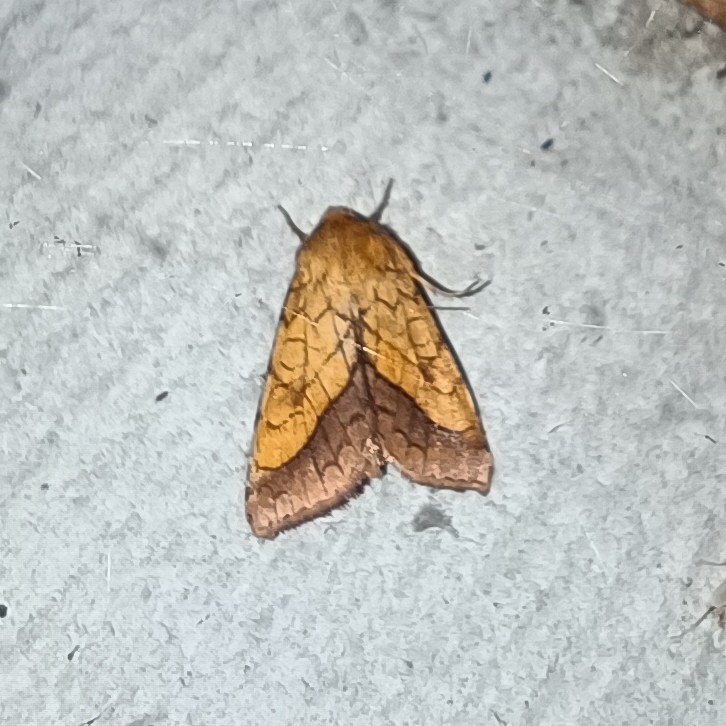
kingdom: Animalia
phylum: Arthropoda
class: Insecta
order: Lepidoptera
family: Noctuidae
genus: Pyrrhia
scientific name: Pyrrhia umbra
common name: Bordered sallow
